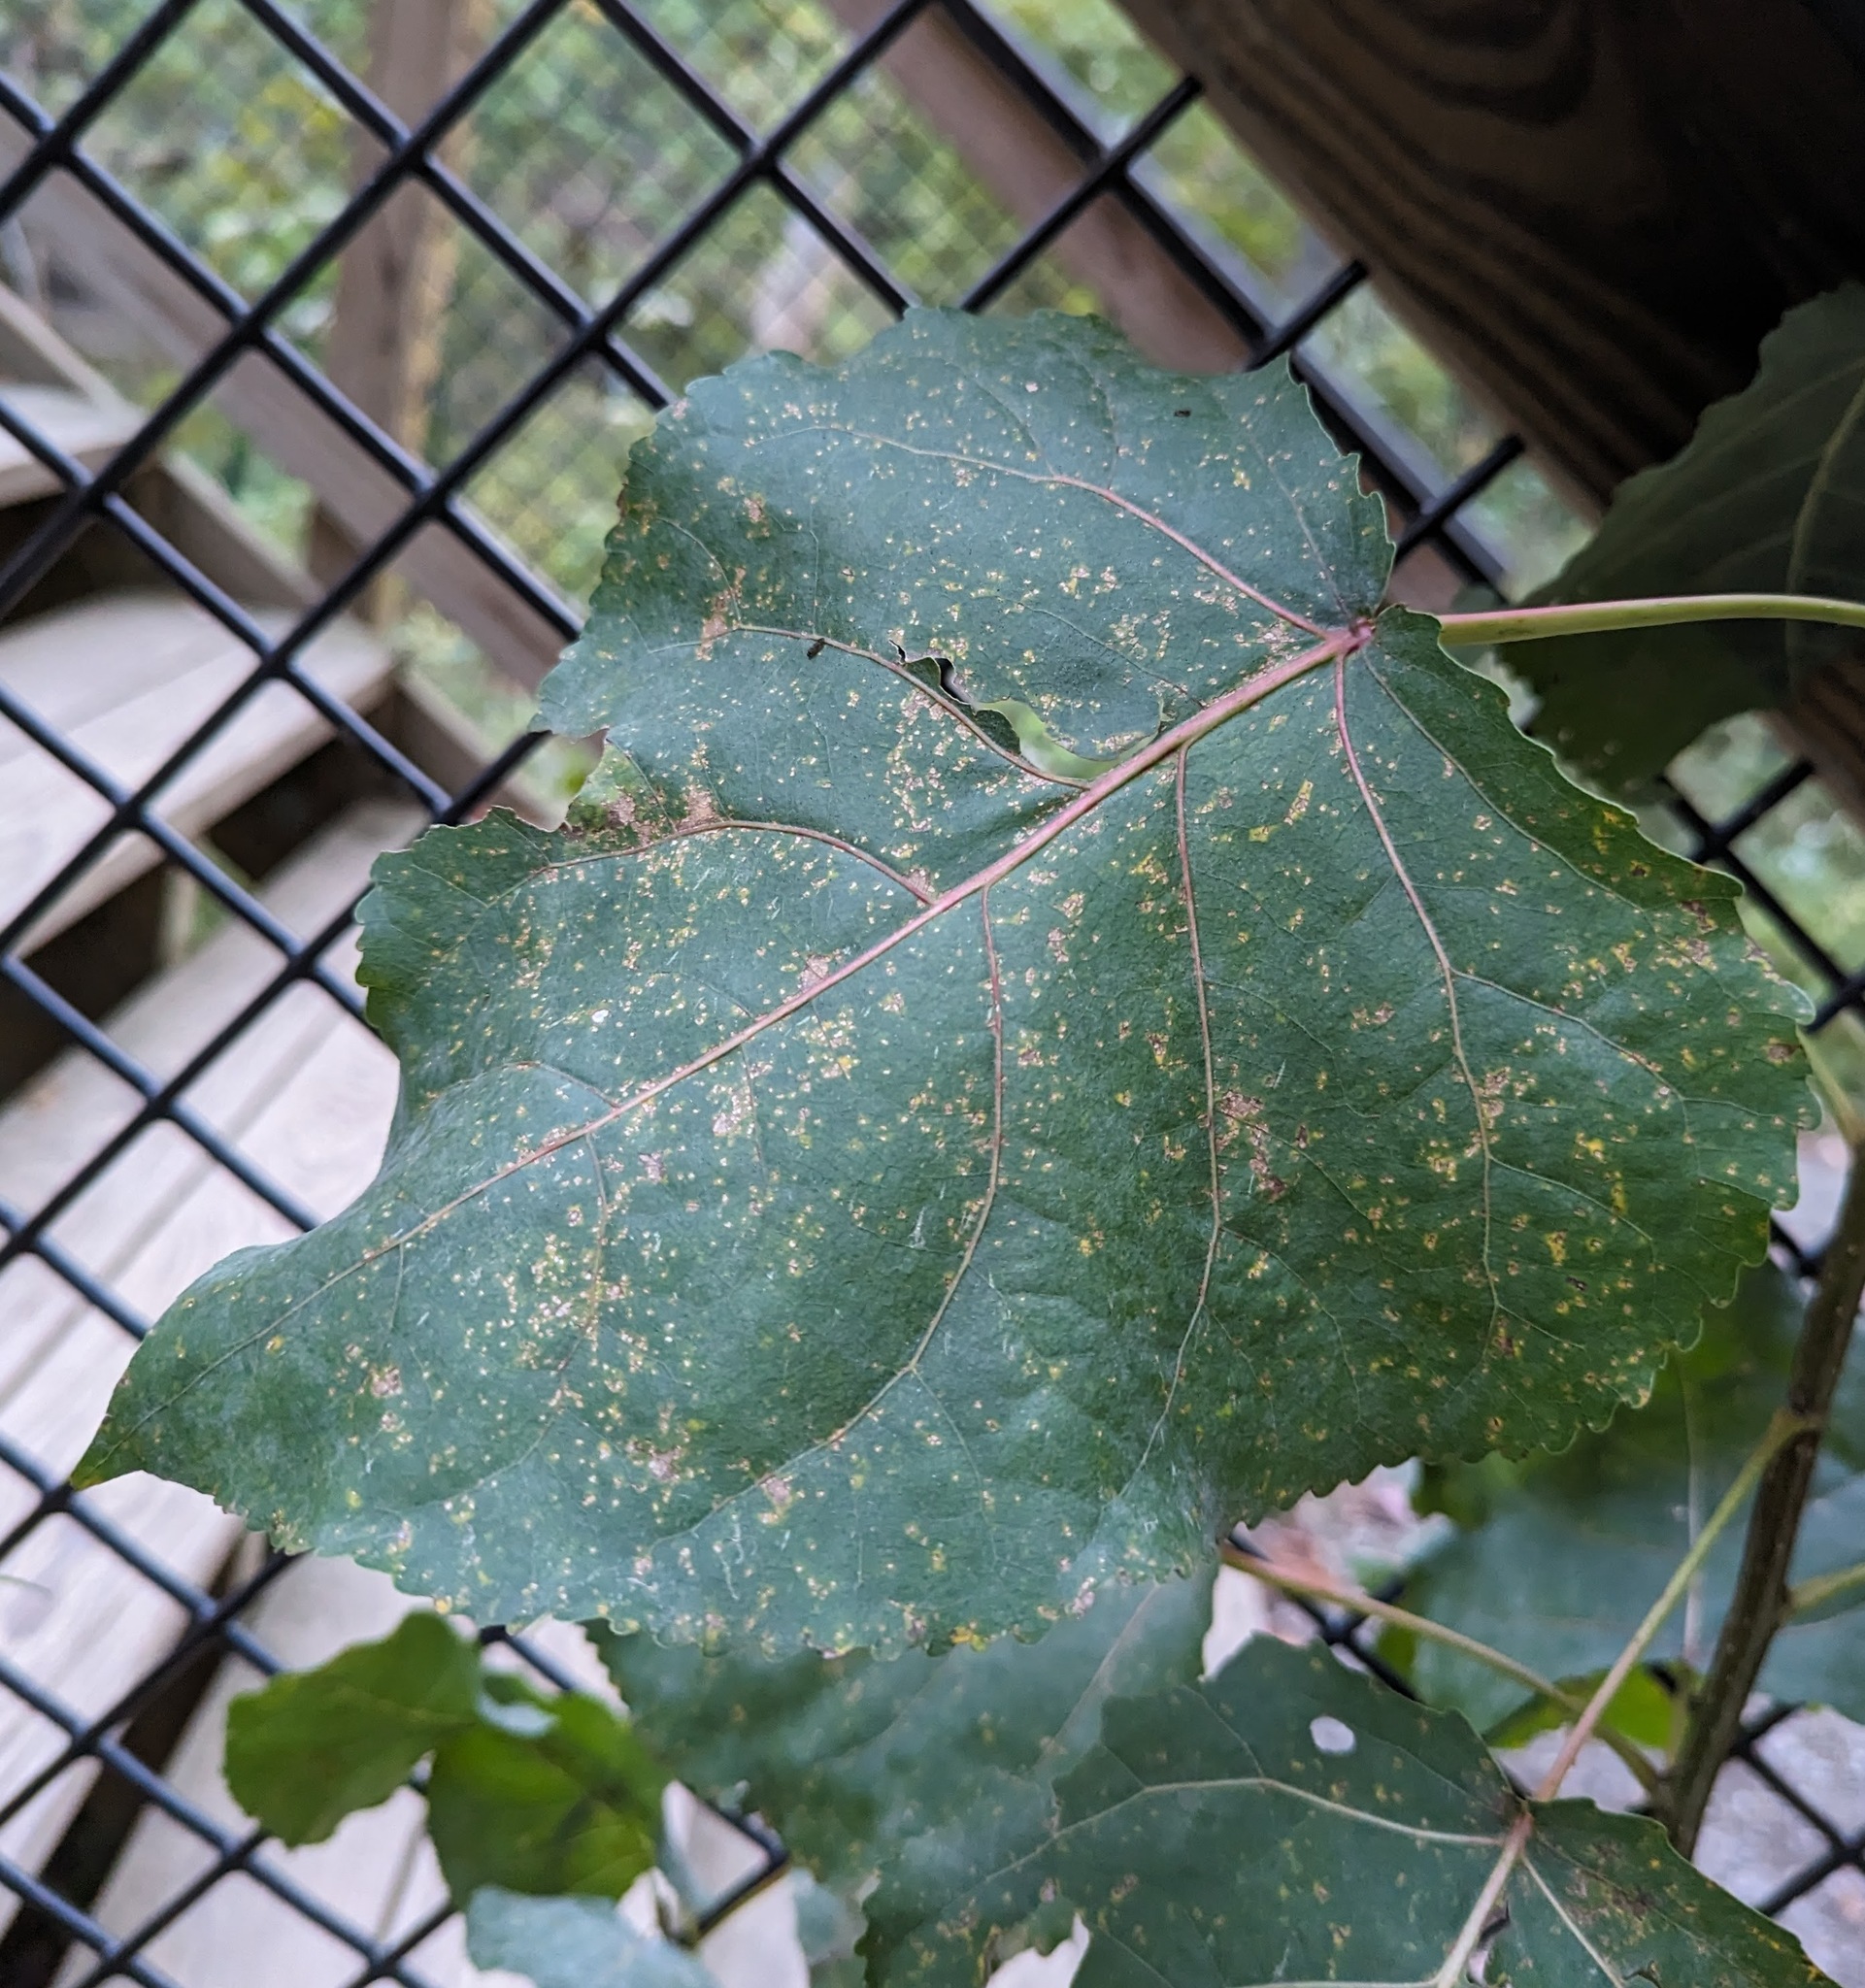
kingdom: Plantae
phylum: Tracheophyta
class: Magnoliopsida
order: Malpighiales
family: Salicaceae
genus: Populus
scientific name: Populus deltoides
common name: Eastern cottonwood
